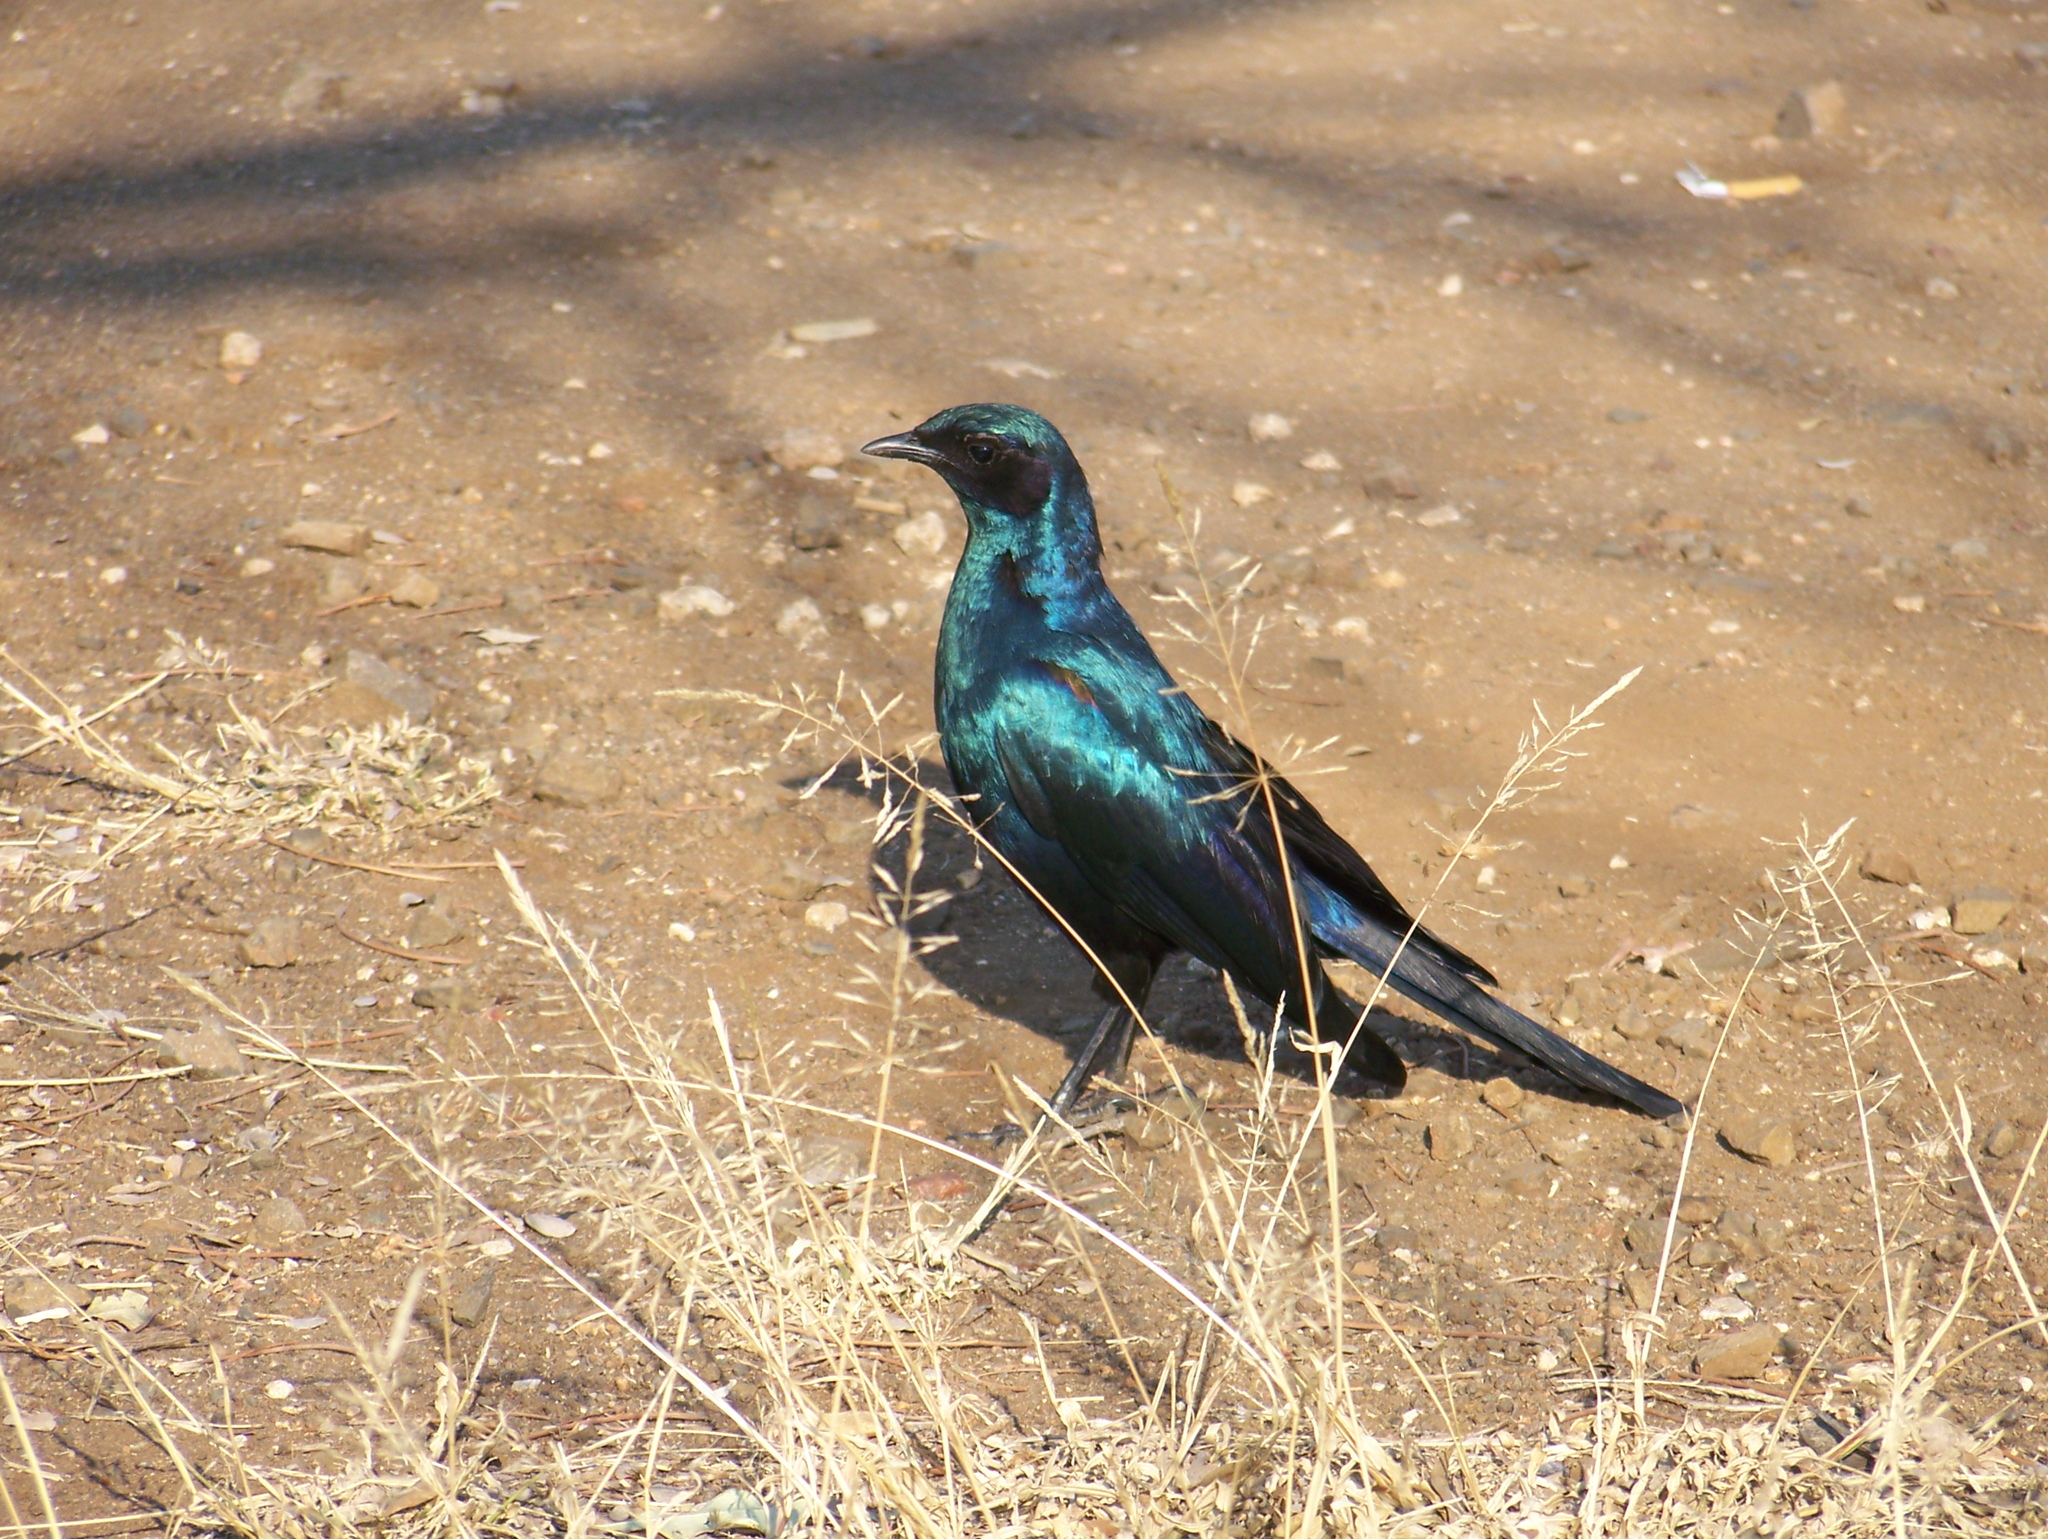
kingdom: Animalia
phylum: Chordata
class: Aves
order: Passeriformes
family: Sturnidae
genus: Lamprotornis
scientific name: Lamprotornis australis
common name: Burchell's starling
